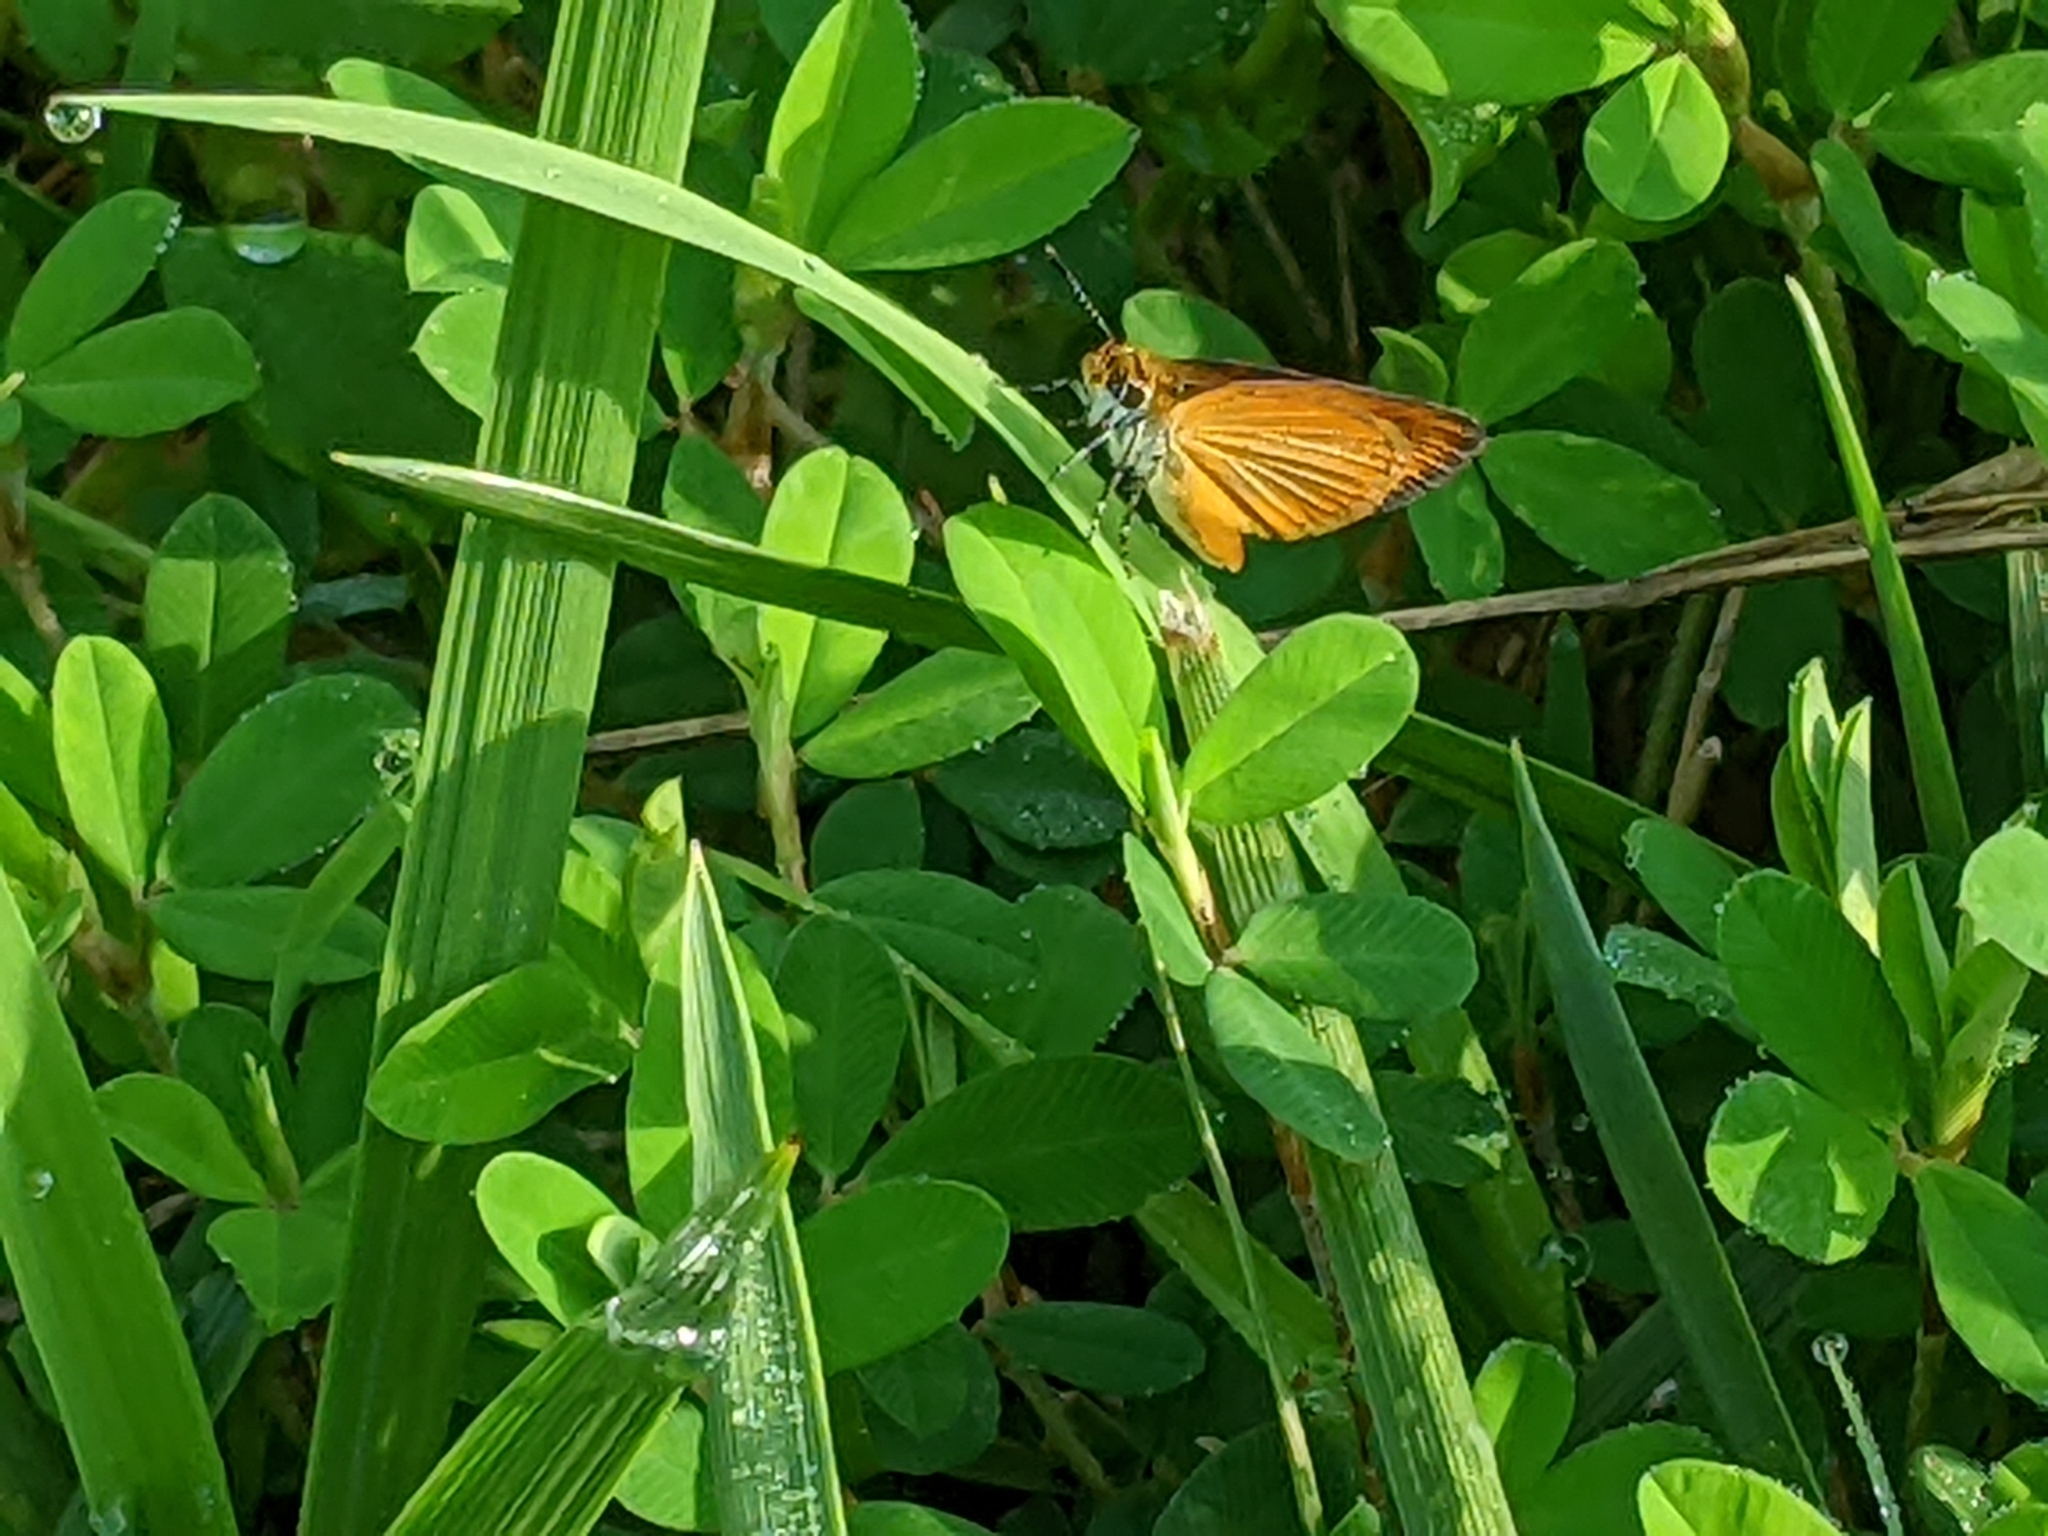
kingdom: Animalia
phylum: Arthropoda
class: Insecta
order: Lepidoptera
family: Hesperiidae
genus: Ancyloxypha
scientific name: Ancyloxypha numitor
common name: Least skipper
